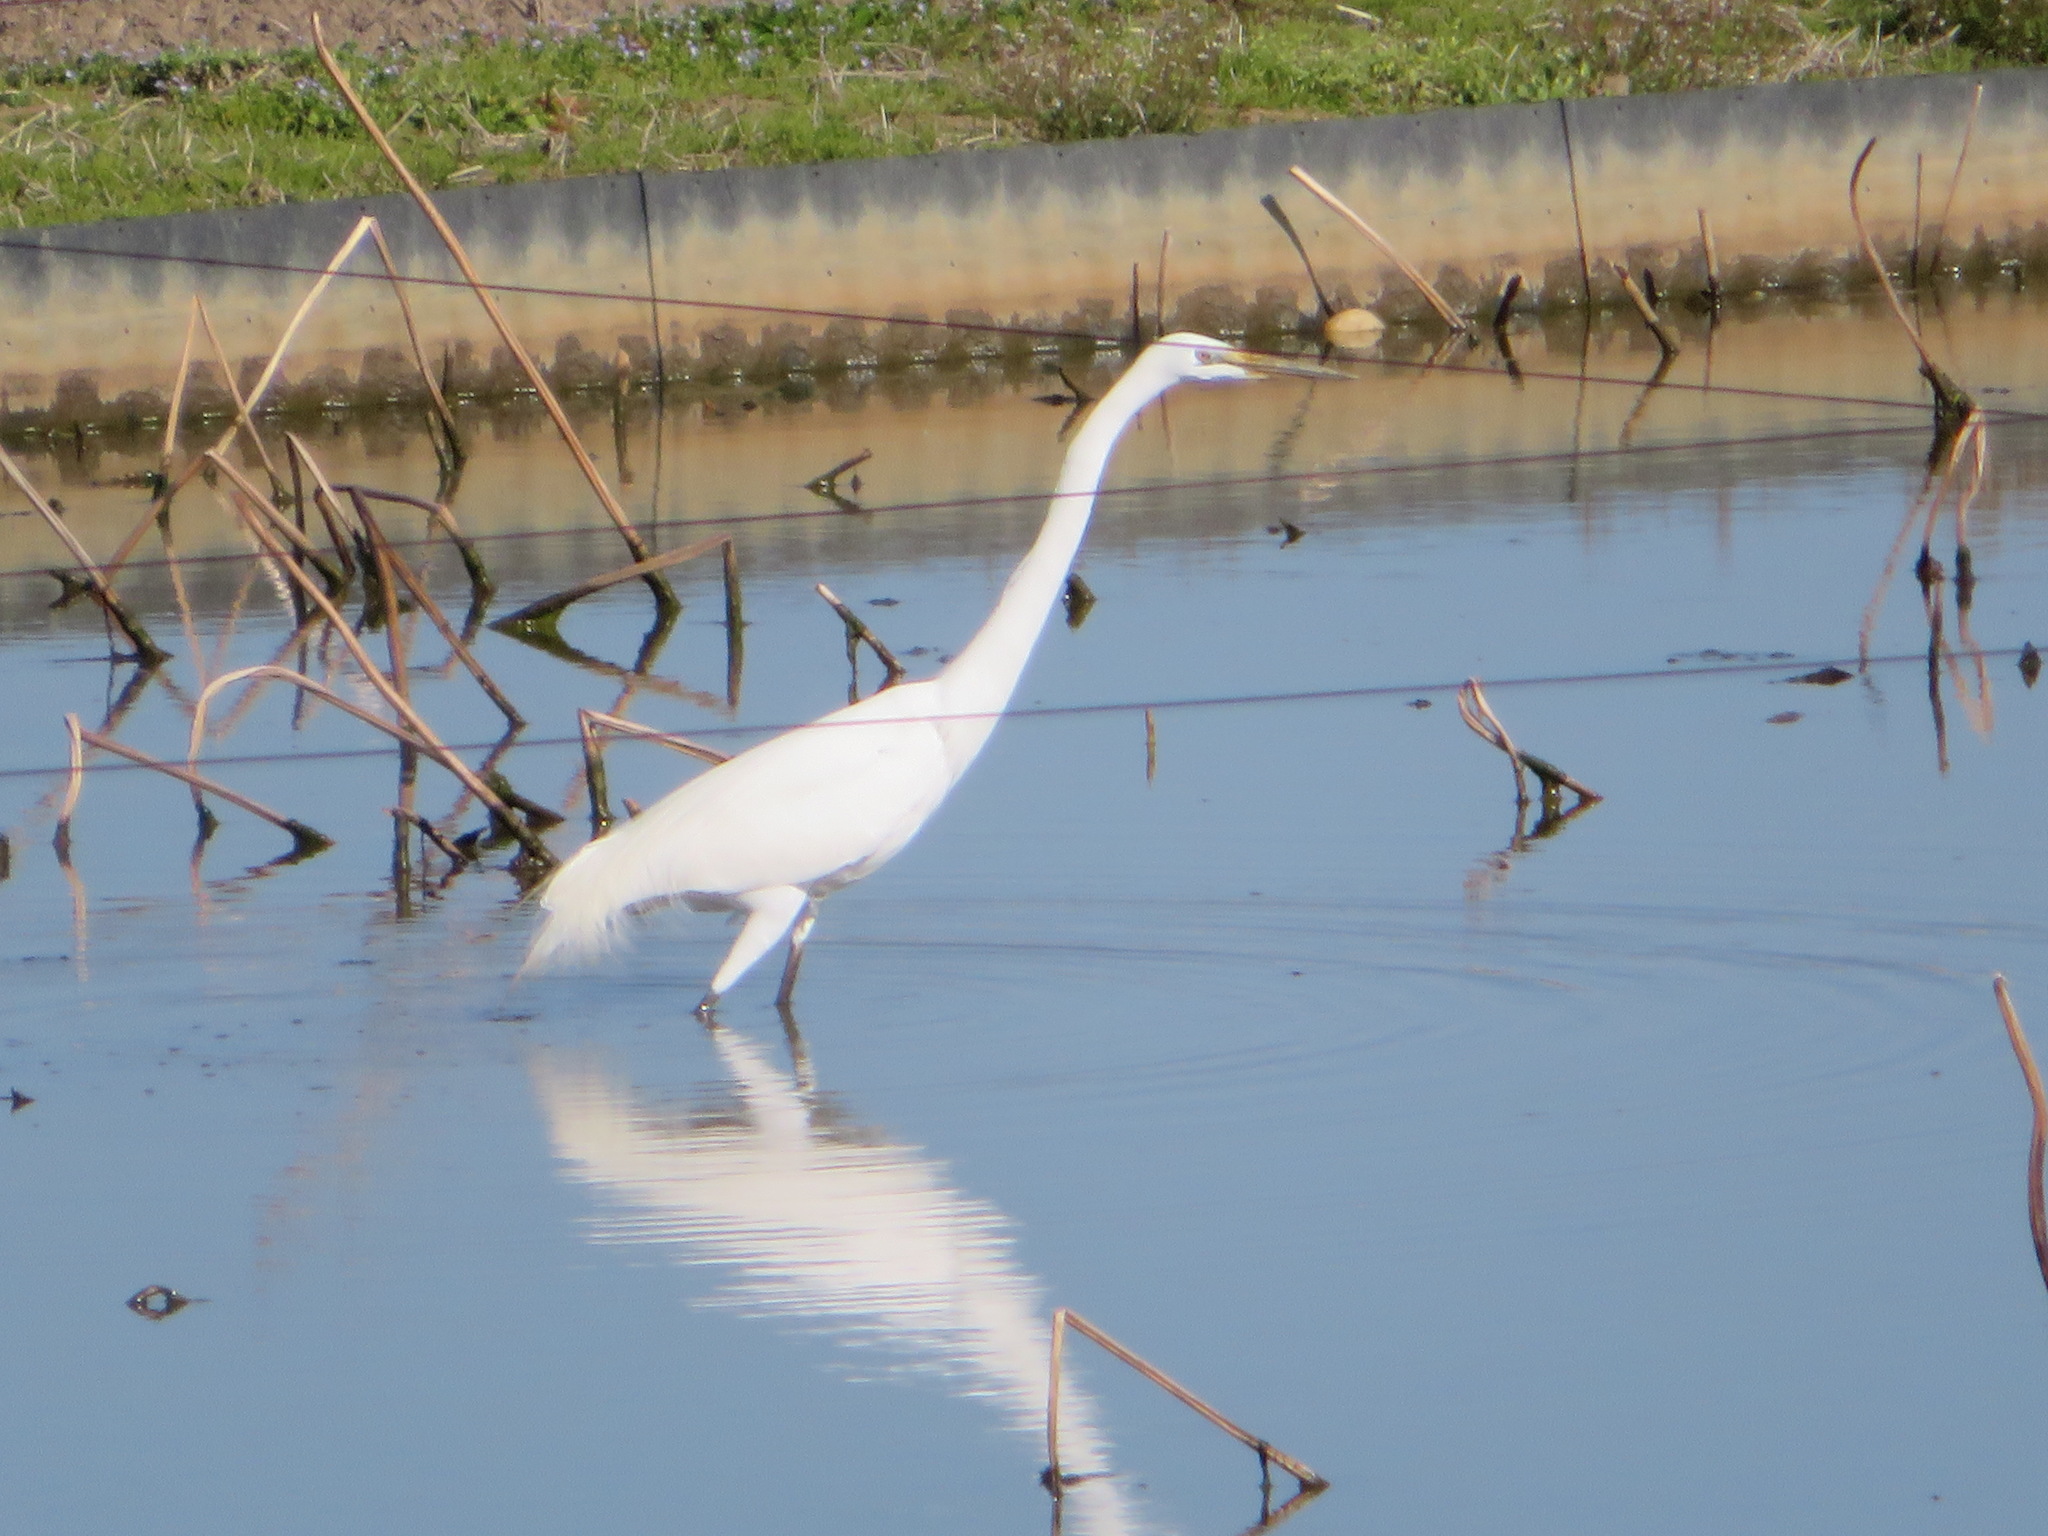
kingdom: Animalia
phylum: Chordata
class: Aves
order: Pelecaniformes
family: Ardeidae
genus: Ardea
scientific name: Ardea alba
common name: Great egret
